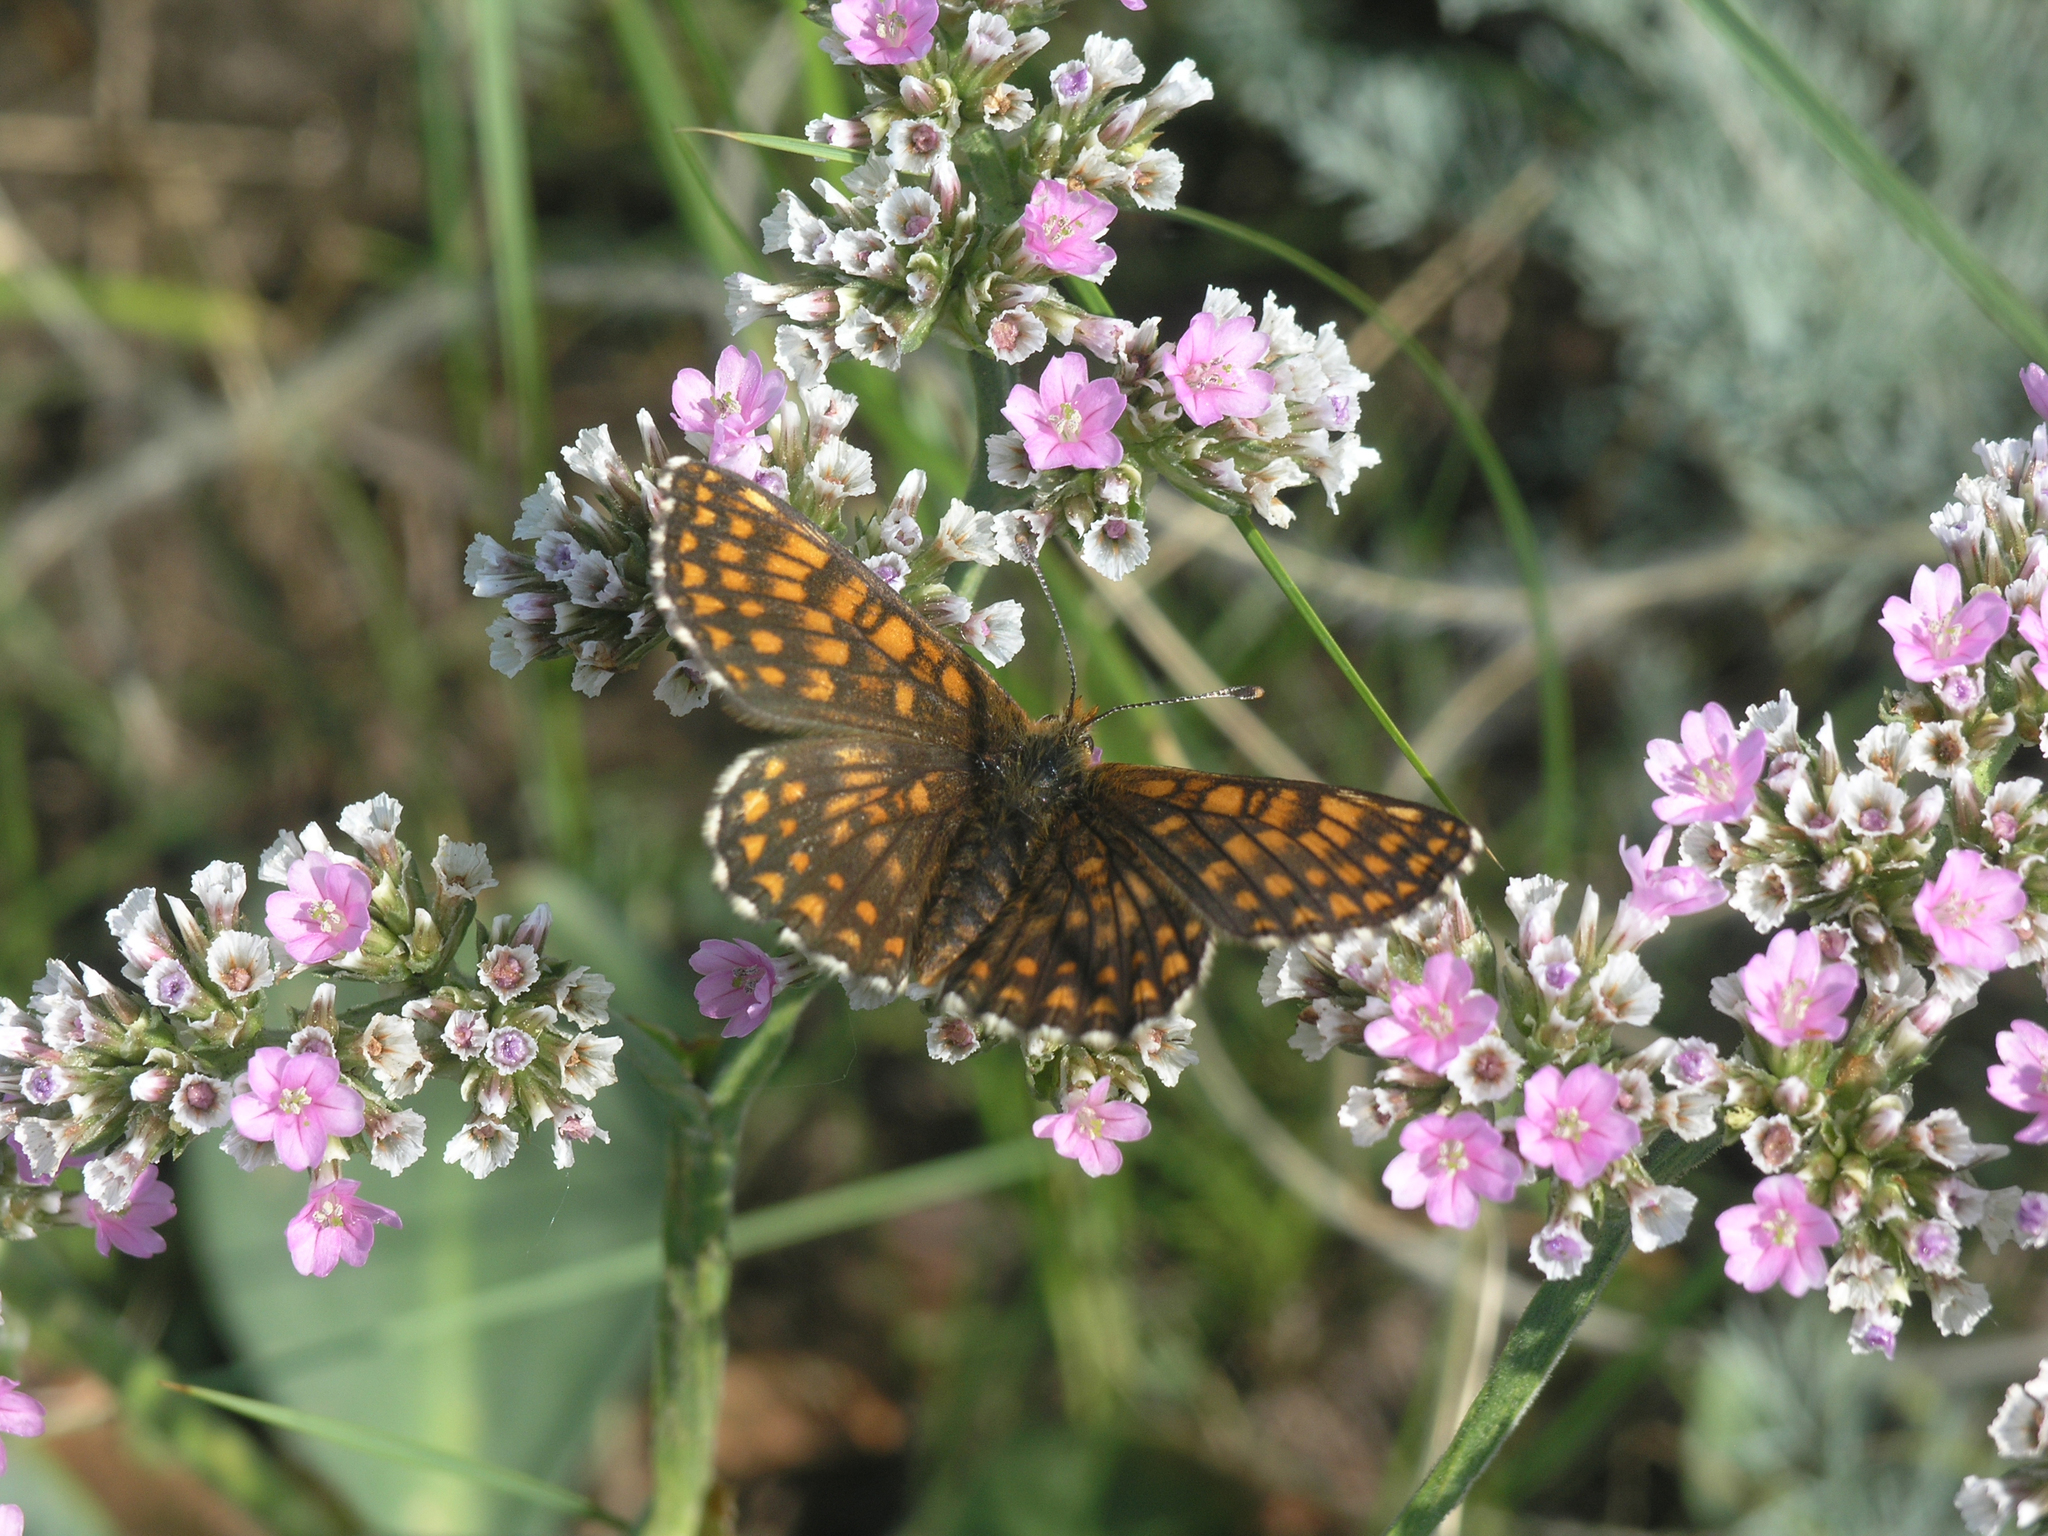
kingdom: Animalia
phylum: Arthropoda
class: Insecta
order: Lepidoptera
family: Nymphalidae
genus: Mellicta
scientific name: Mellicta menetriesi
